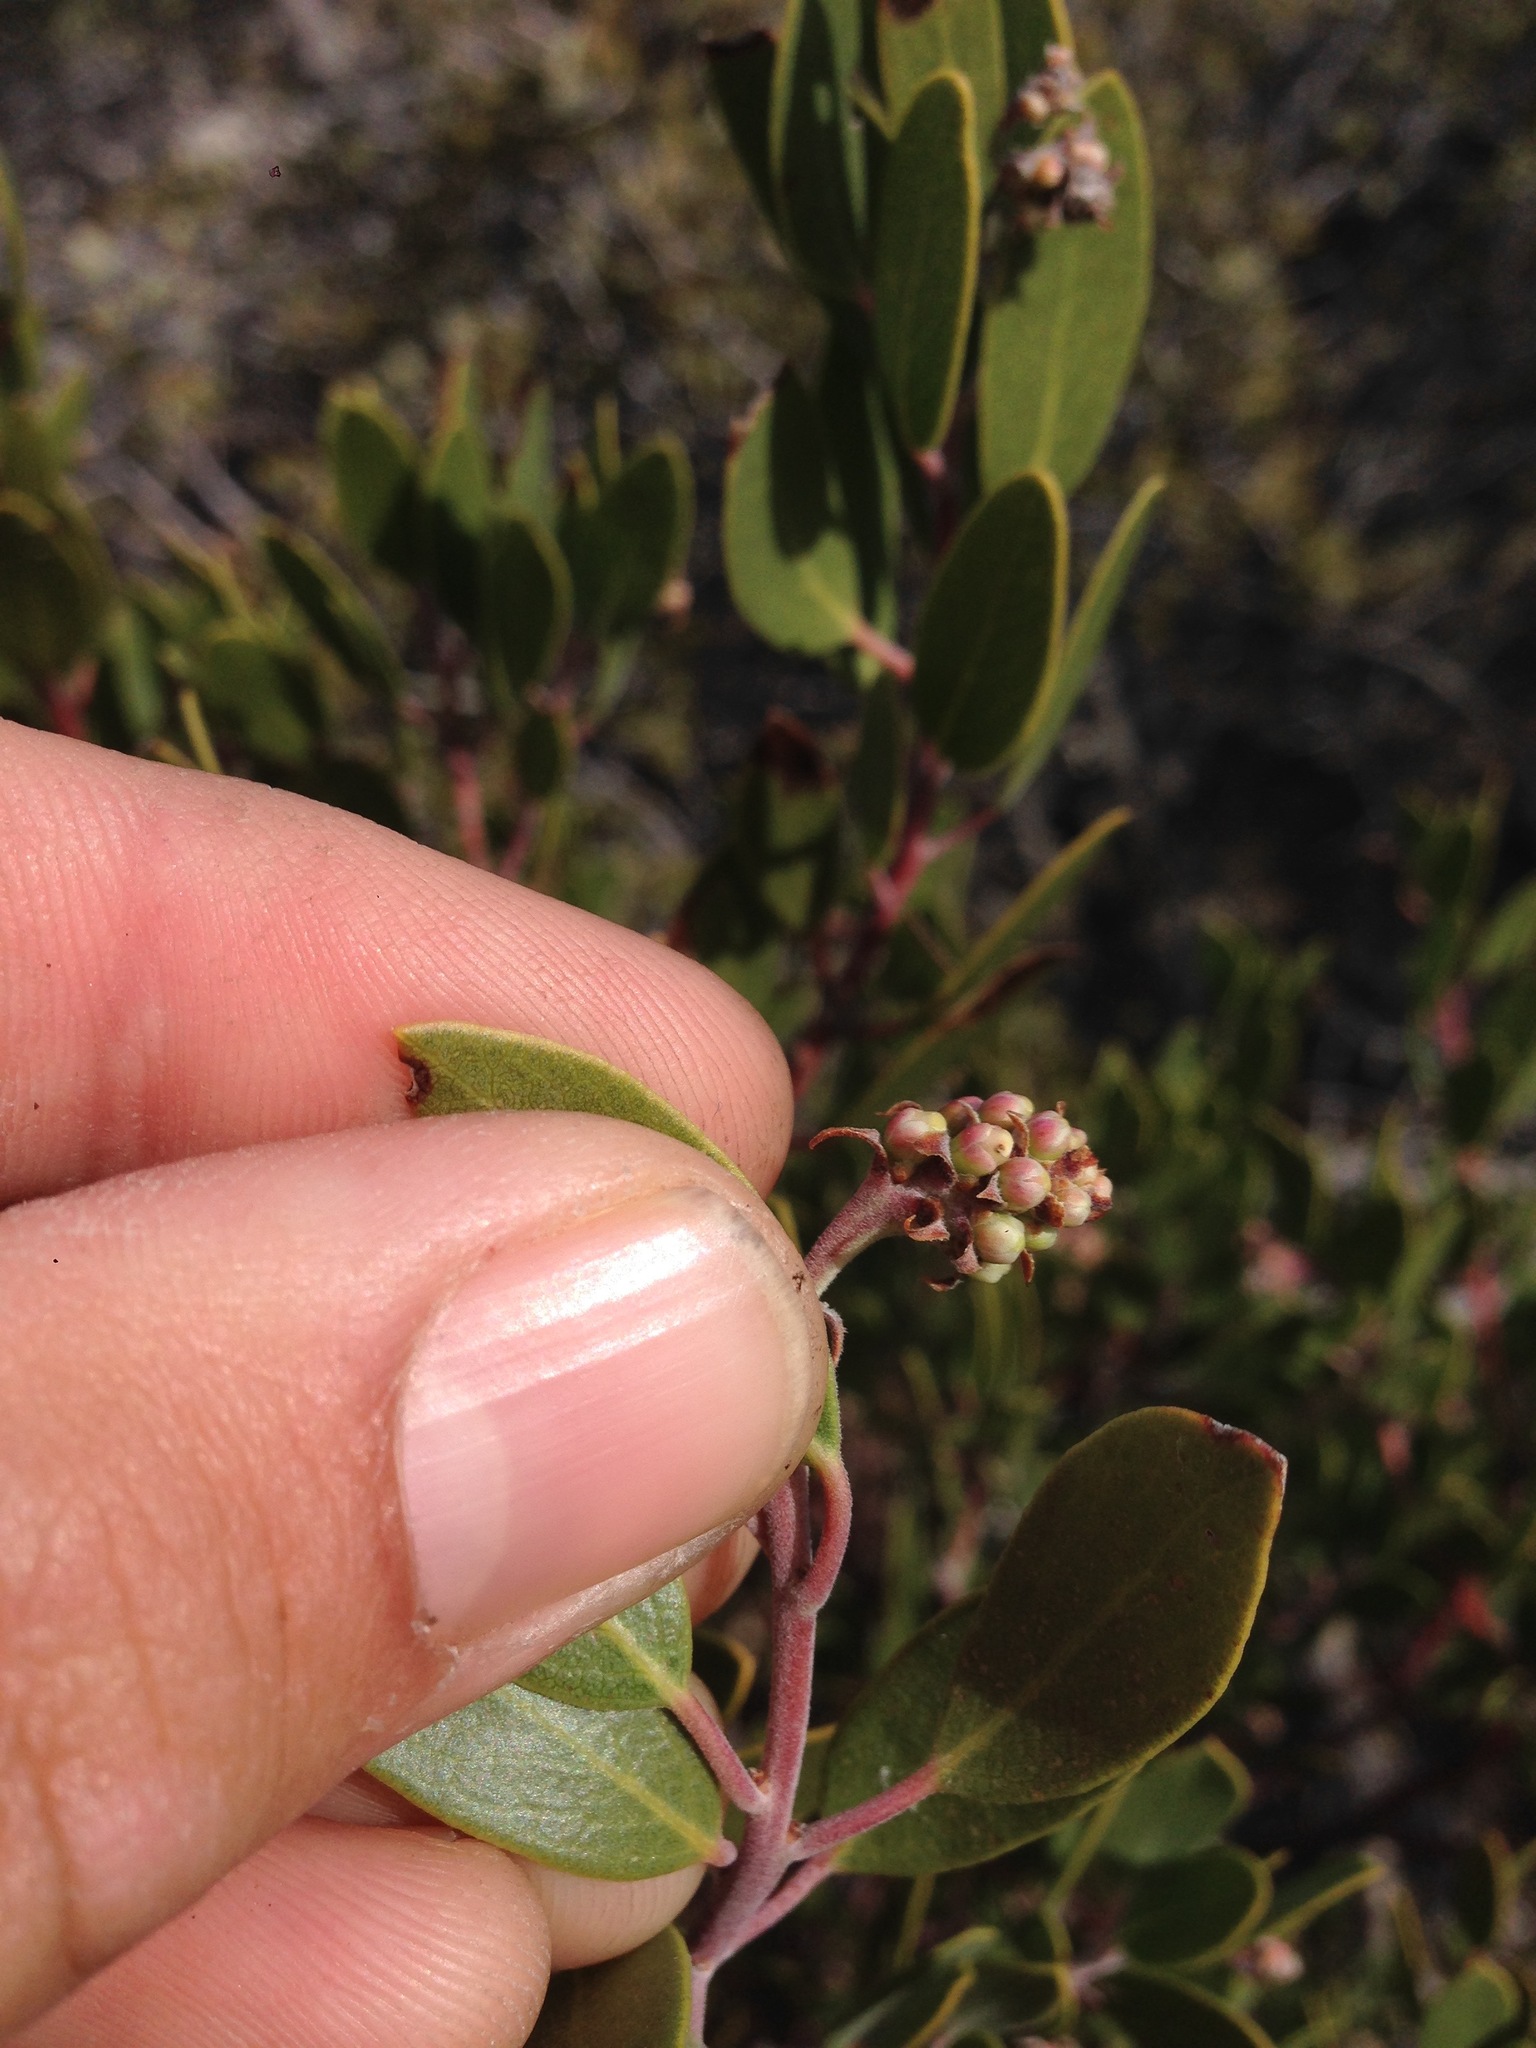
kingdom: Plantae
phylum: Tracheophyta
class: Magnoliopsida
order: Ericales
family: Ericaceae
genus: Arctostaphylos
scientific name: Arctostaphylos pungens
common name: Mexican manzanita
